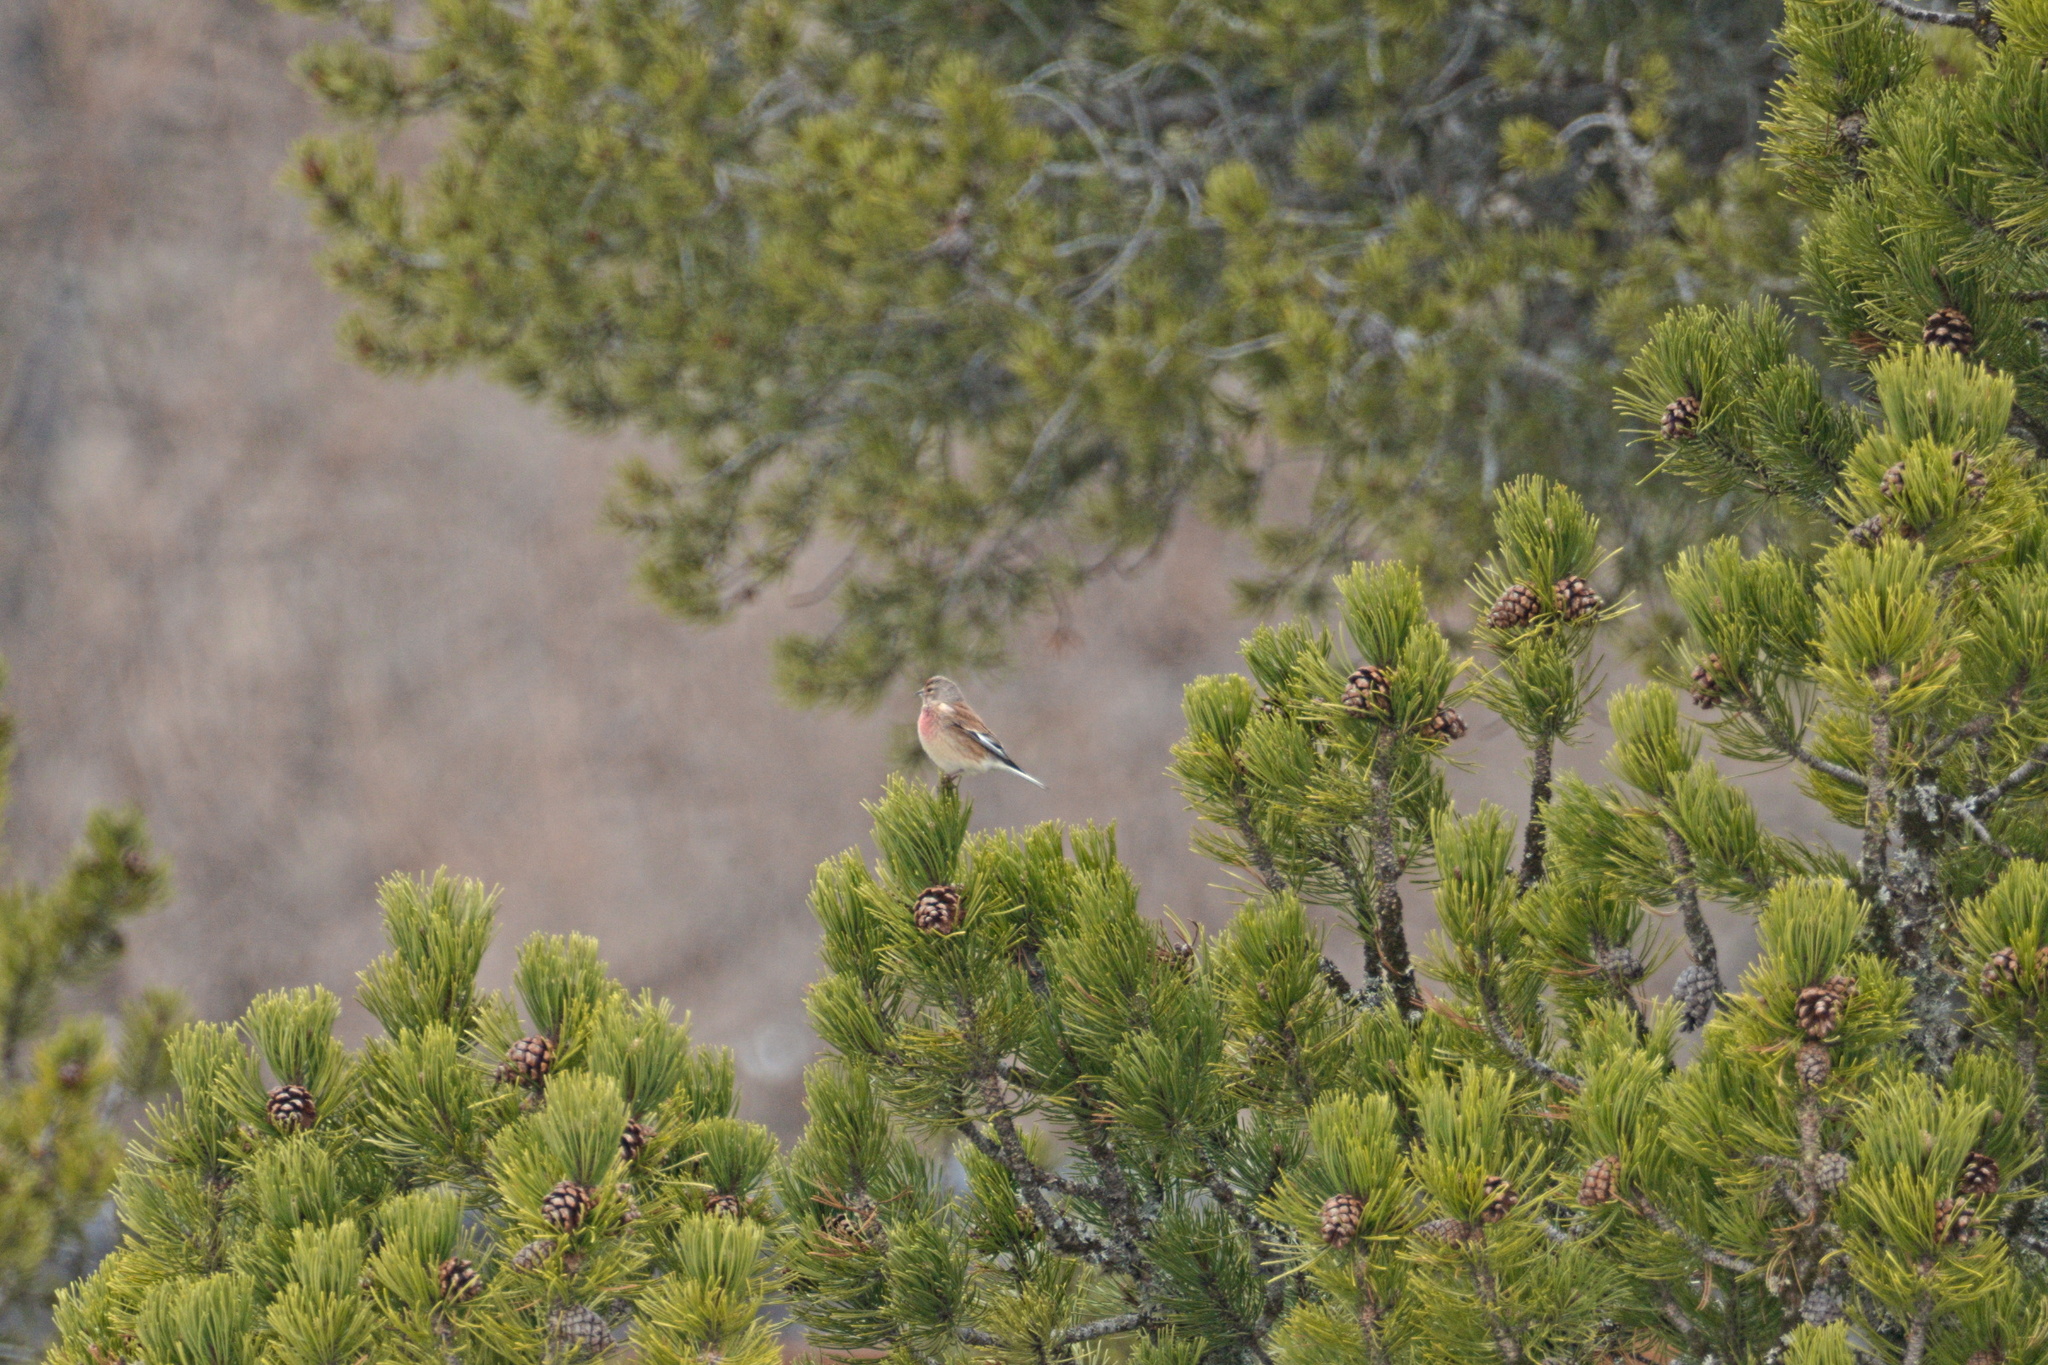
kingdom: Animalia
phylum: Chordata
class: Aves
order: Passeriformes
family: Fringillidae
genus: Linaria
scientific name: Linaria cannabina
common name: Common linnet
